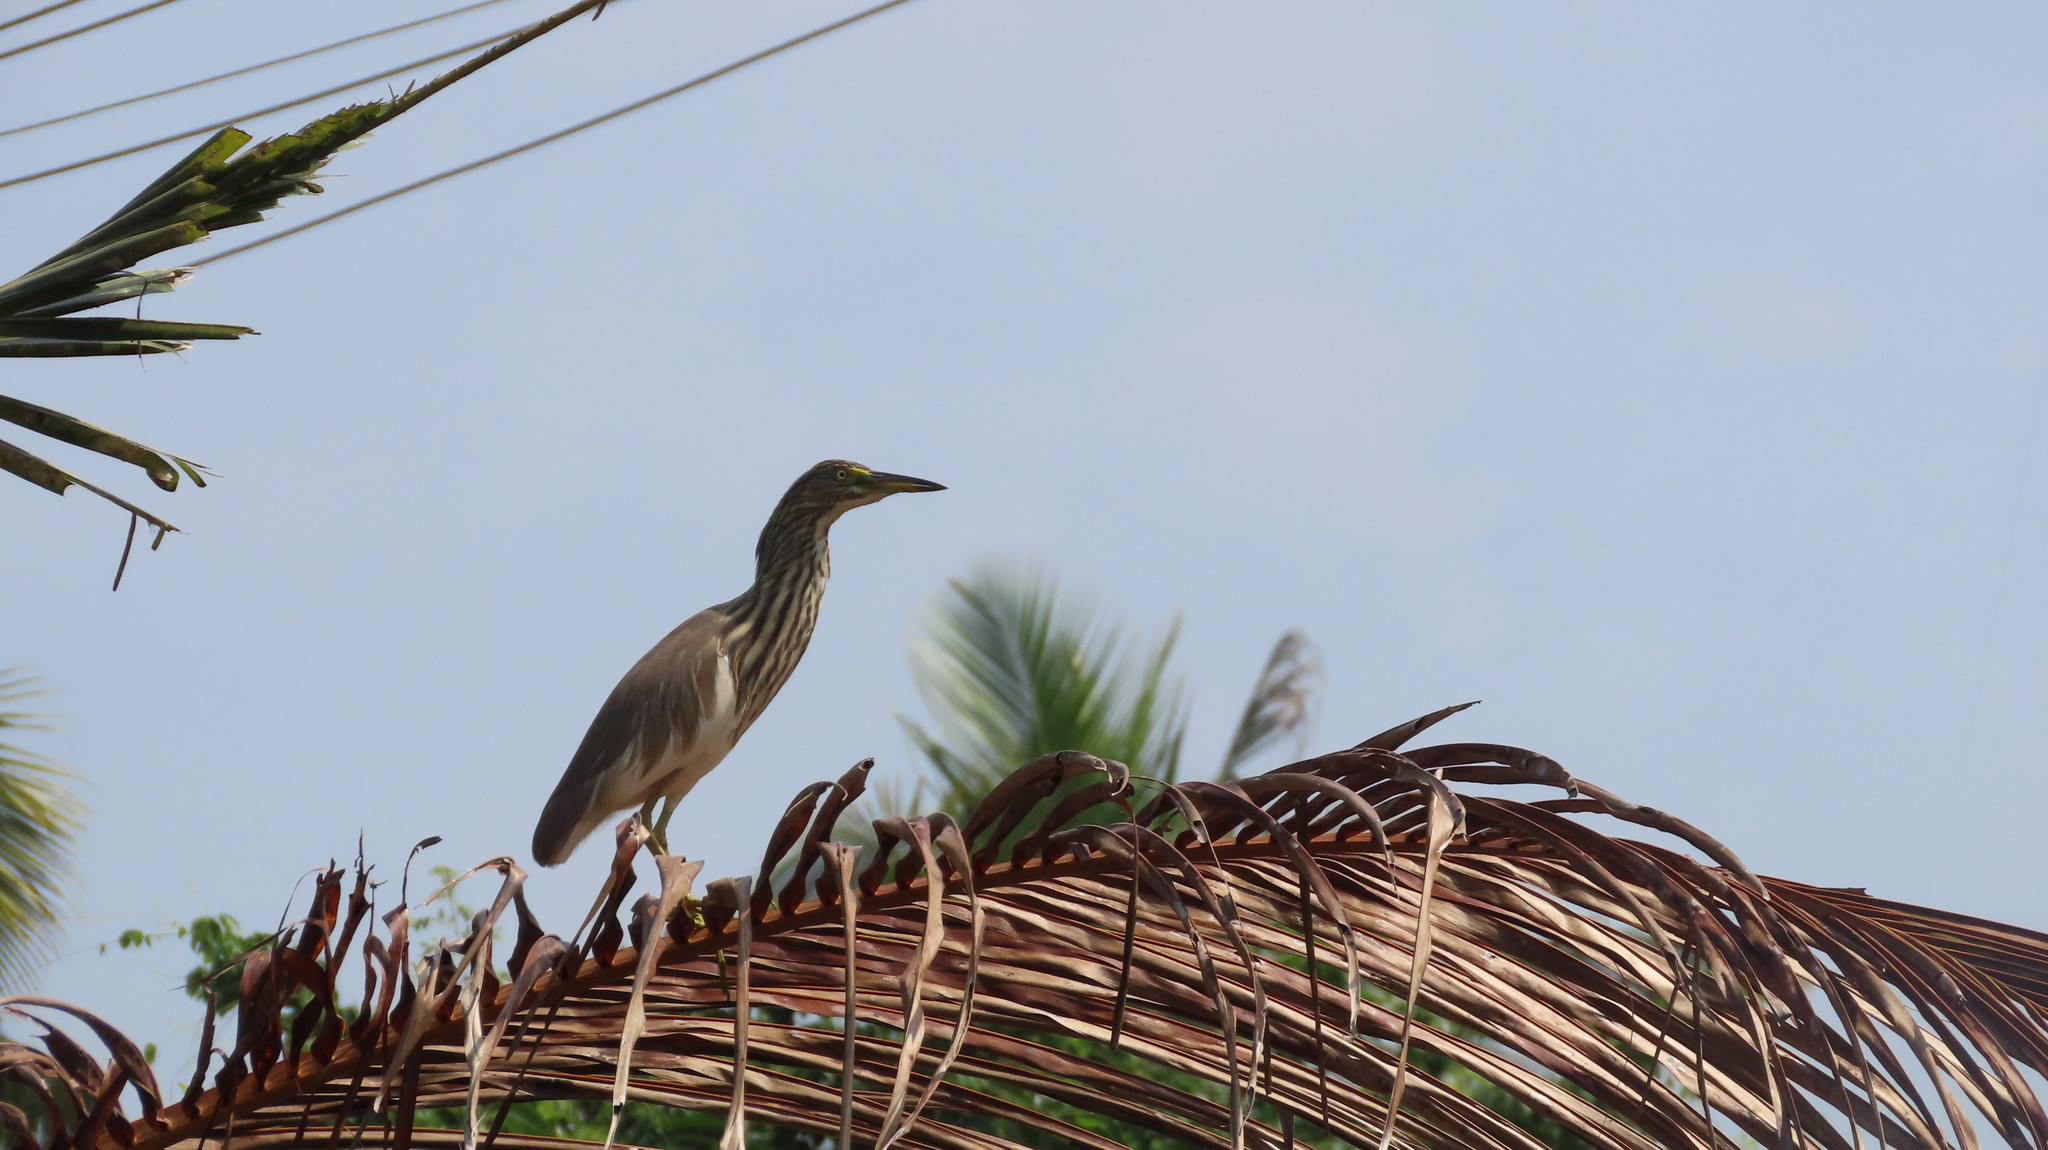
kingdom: Animalia
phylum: Chordata
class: Aves
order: Pelecaniformes
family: Ardeidae
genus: Ardeola
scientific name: Ardeola grayii
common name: Indian pond heron
